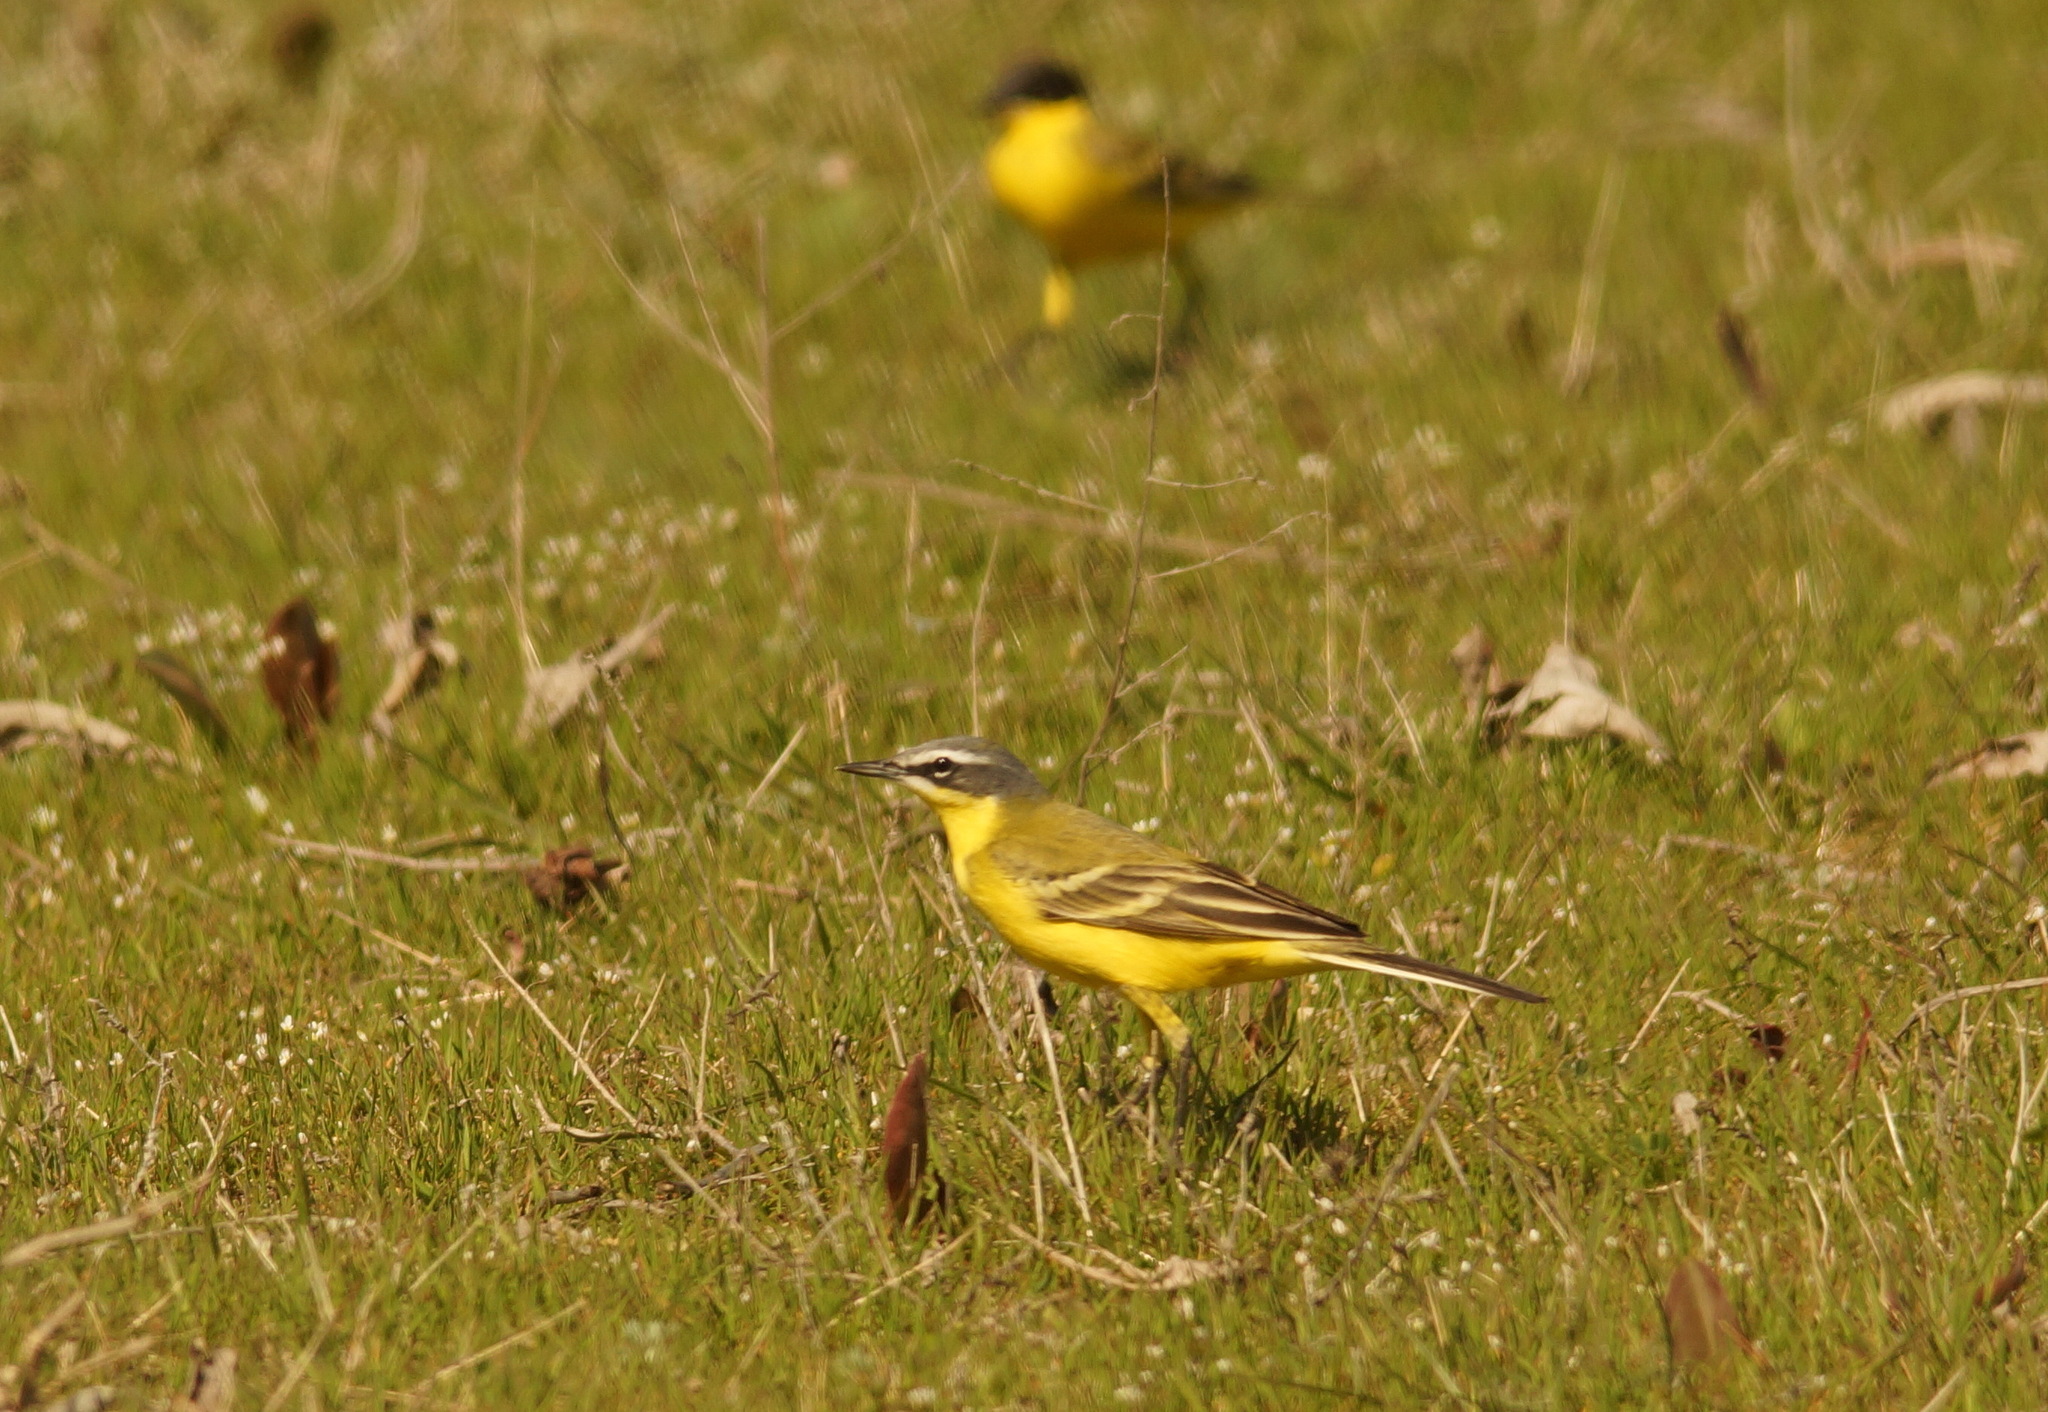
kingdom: Animalia
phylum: Chordata
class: Aves
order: Passeriformes
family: Motacillidae
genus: Motacilla
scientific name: Motacilla flava
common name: Western yellow wagtail
